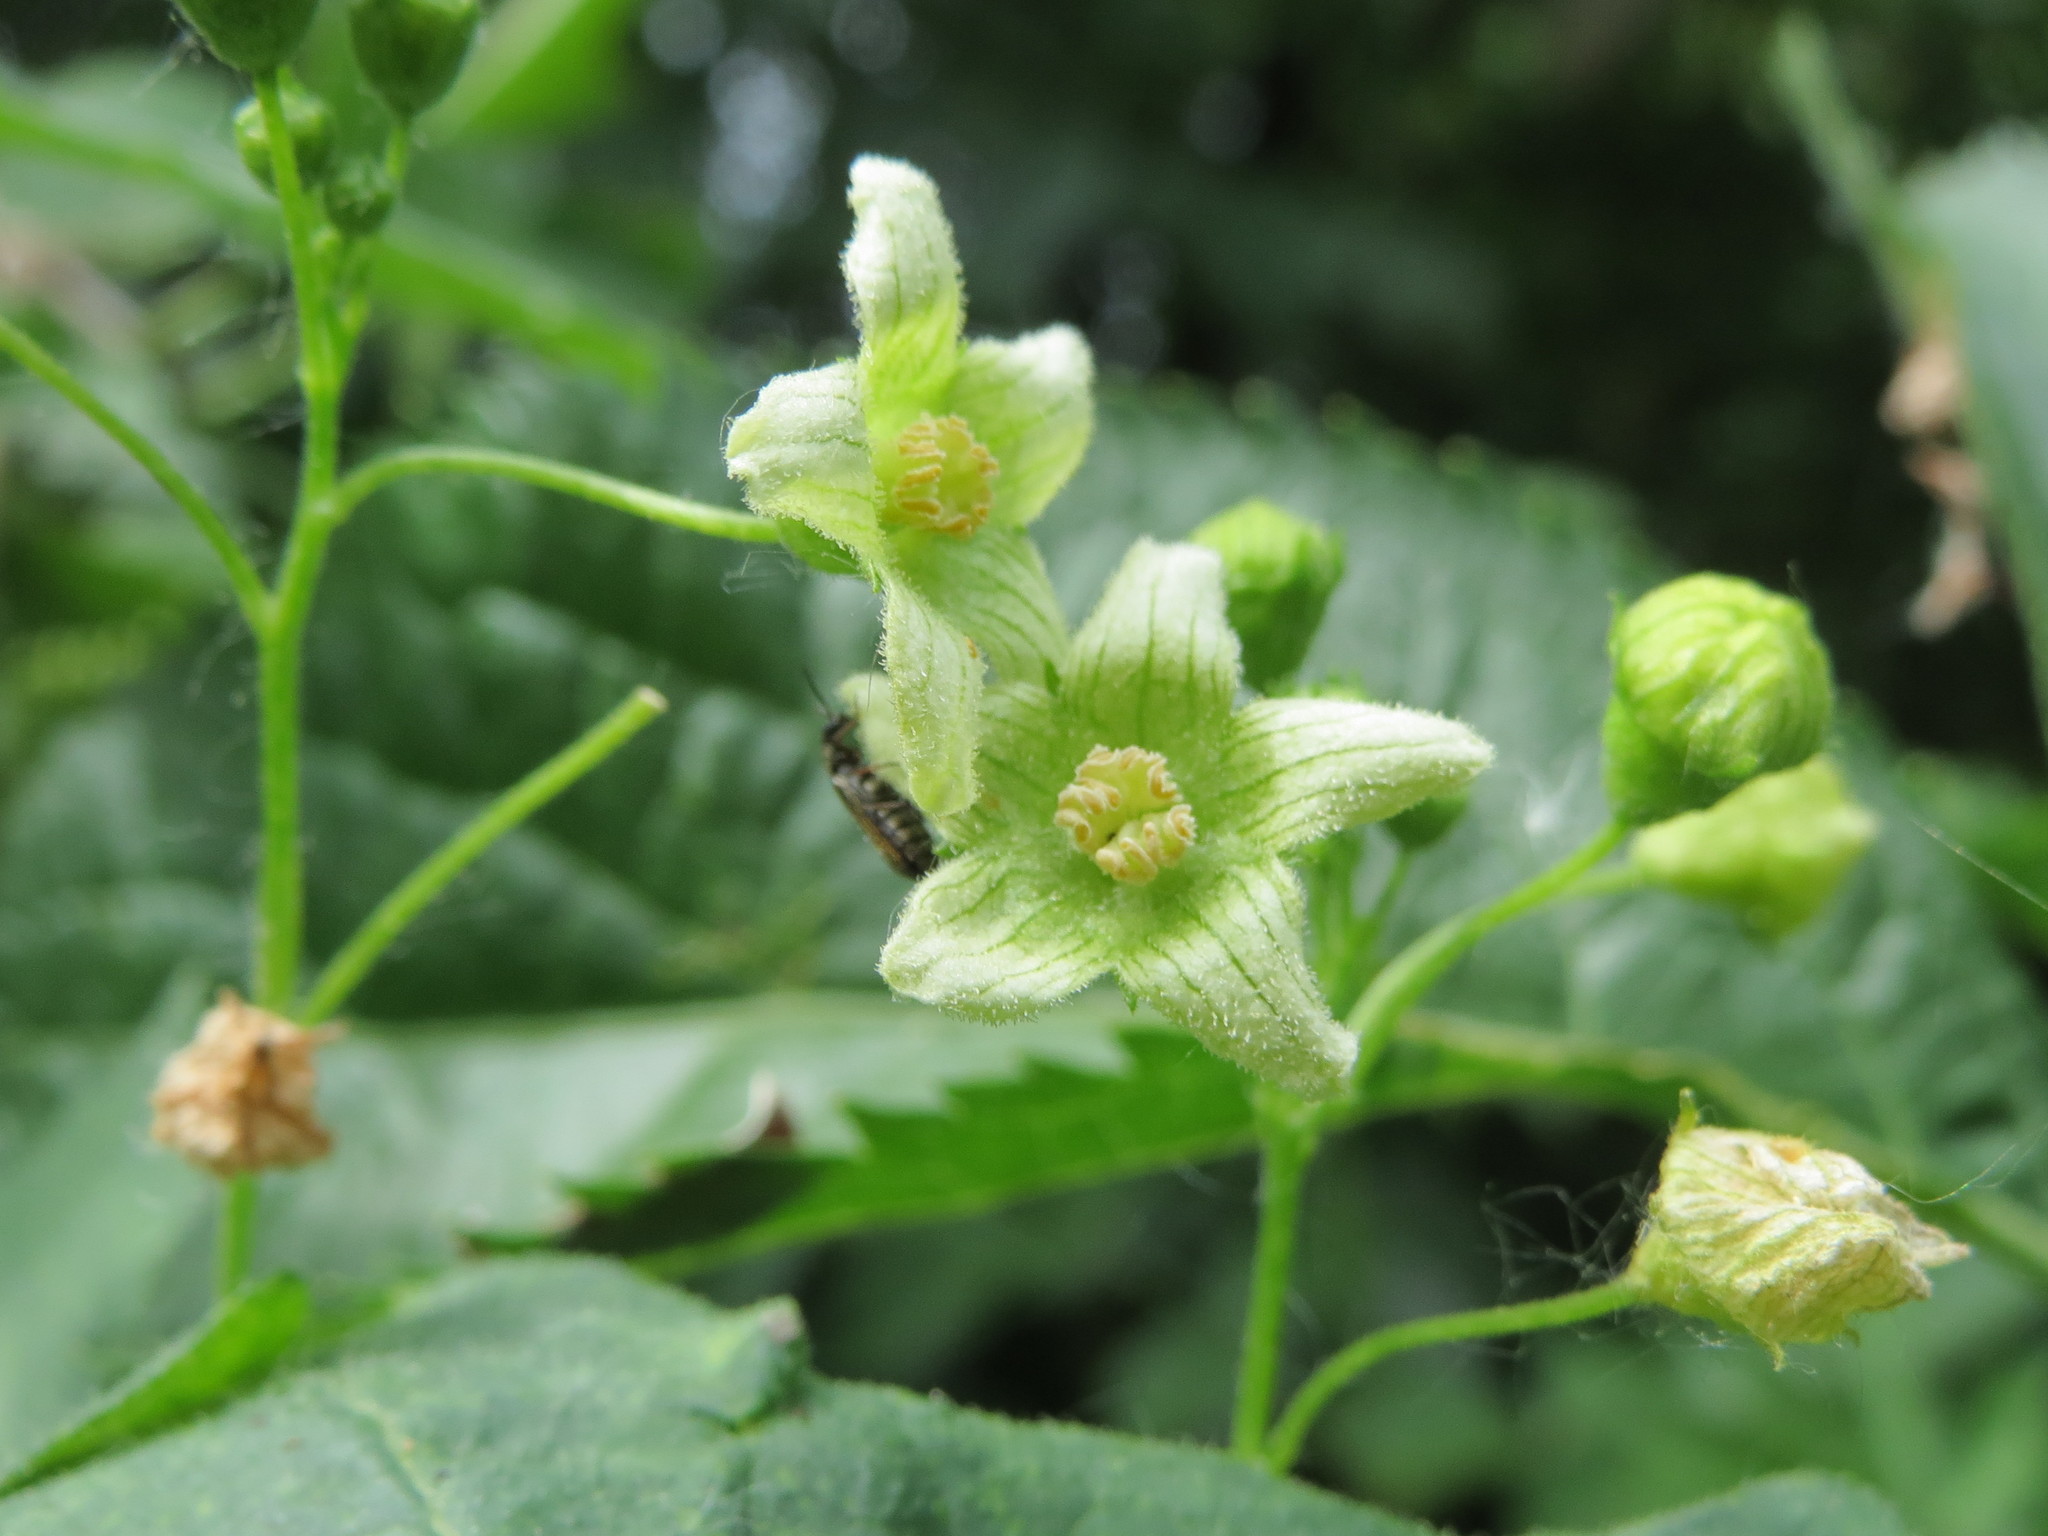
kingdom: Plantae
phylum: Tracheophyta
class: Magnoliopsida
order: Cucurbitales
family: Cucurbitaceae
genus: Bryonia
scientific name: Bryonia dioica
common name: White bryony
